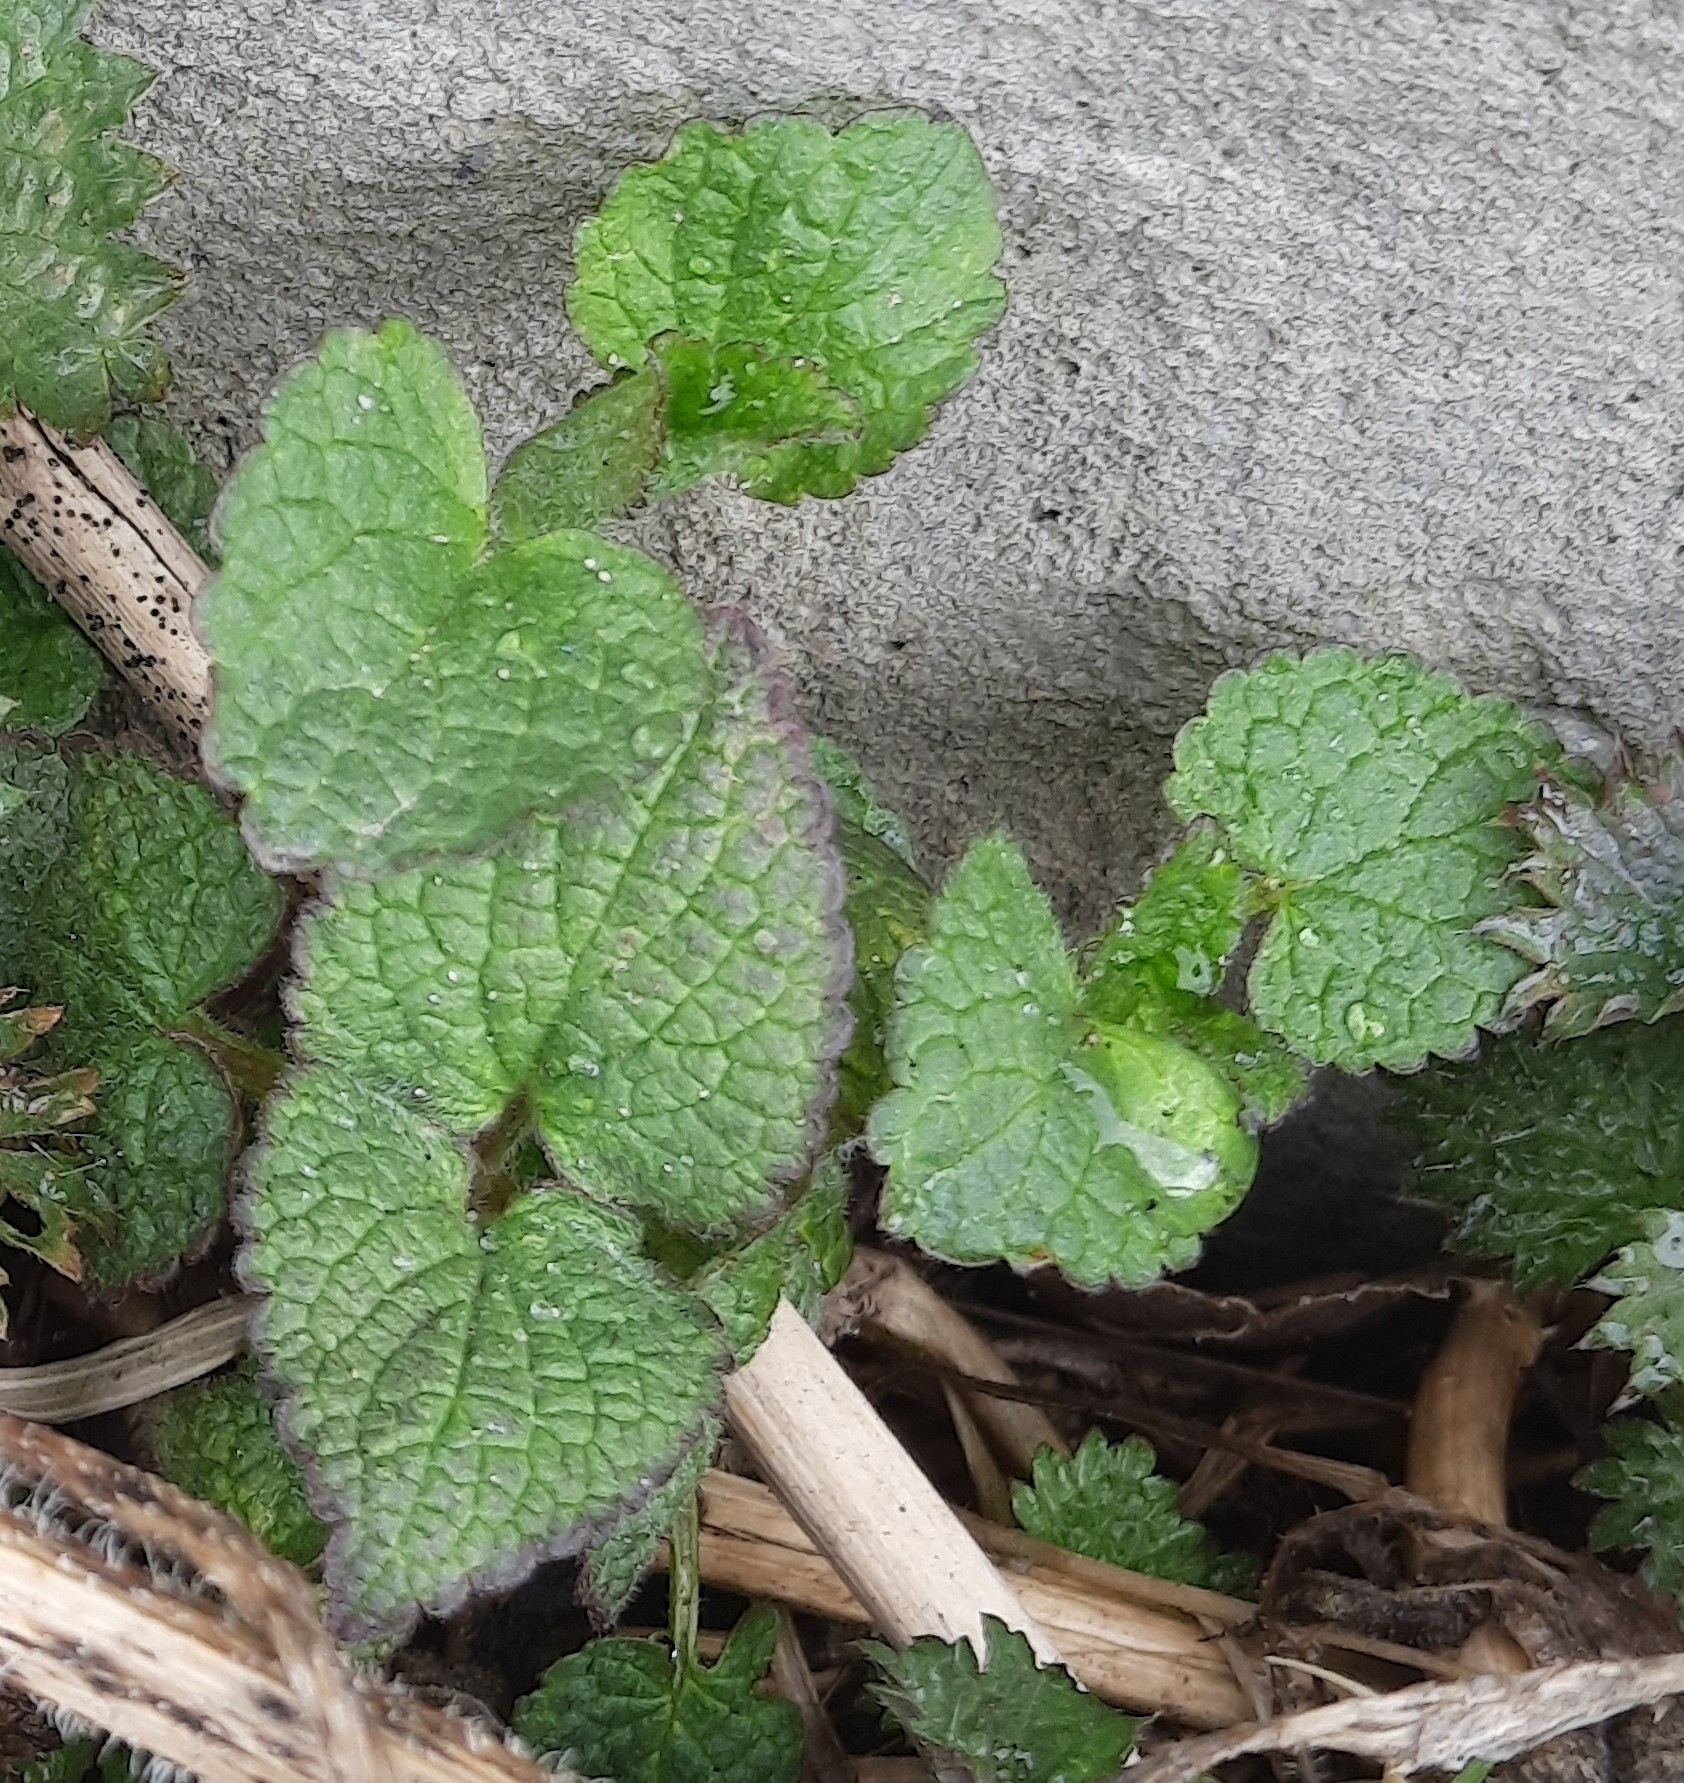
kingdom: Plantae
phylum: Tracheophyta
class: Magnoliopsida
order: Lamiales
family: Lamiaceae
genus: Lamium
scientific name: Lamium album
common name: White dead-nettle
